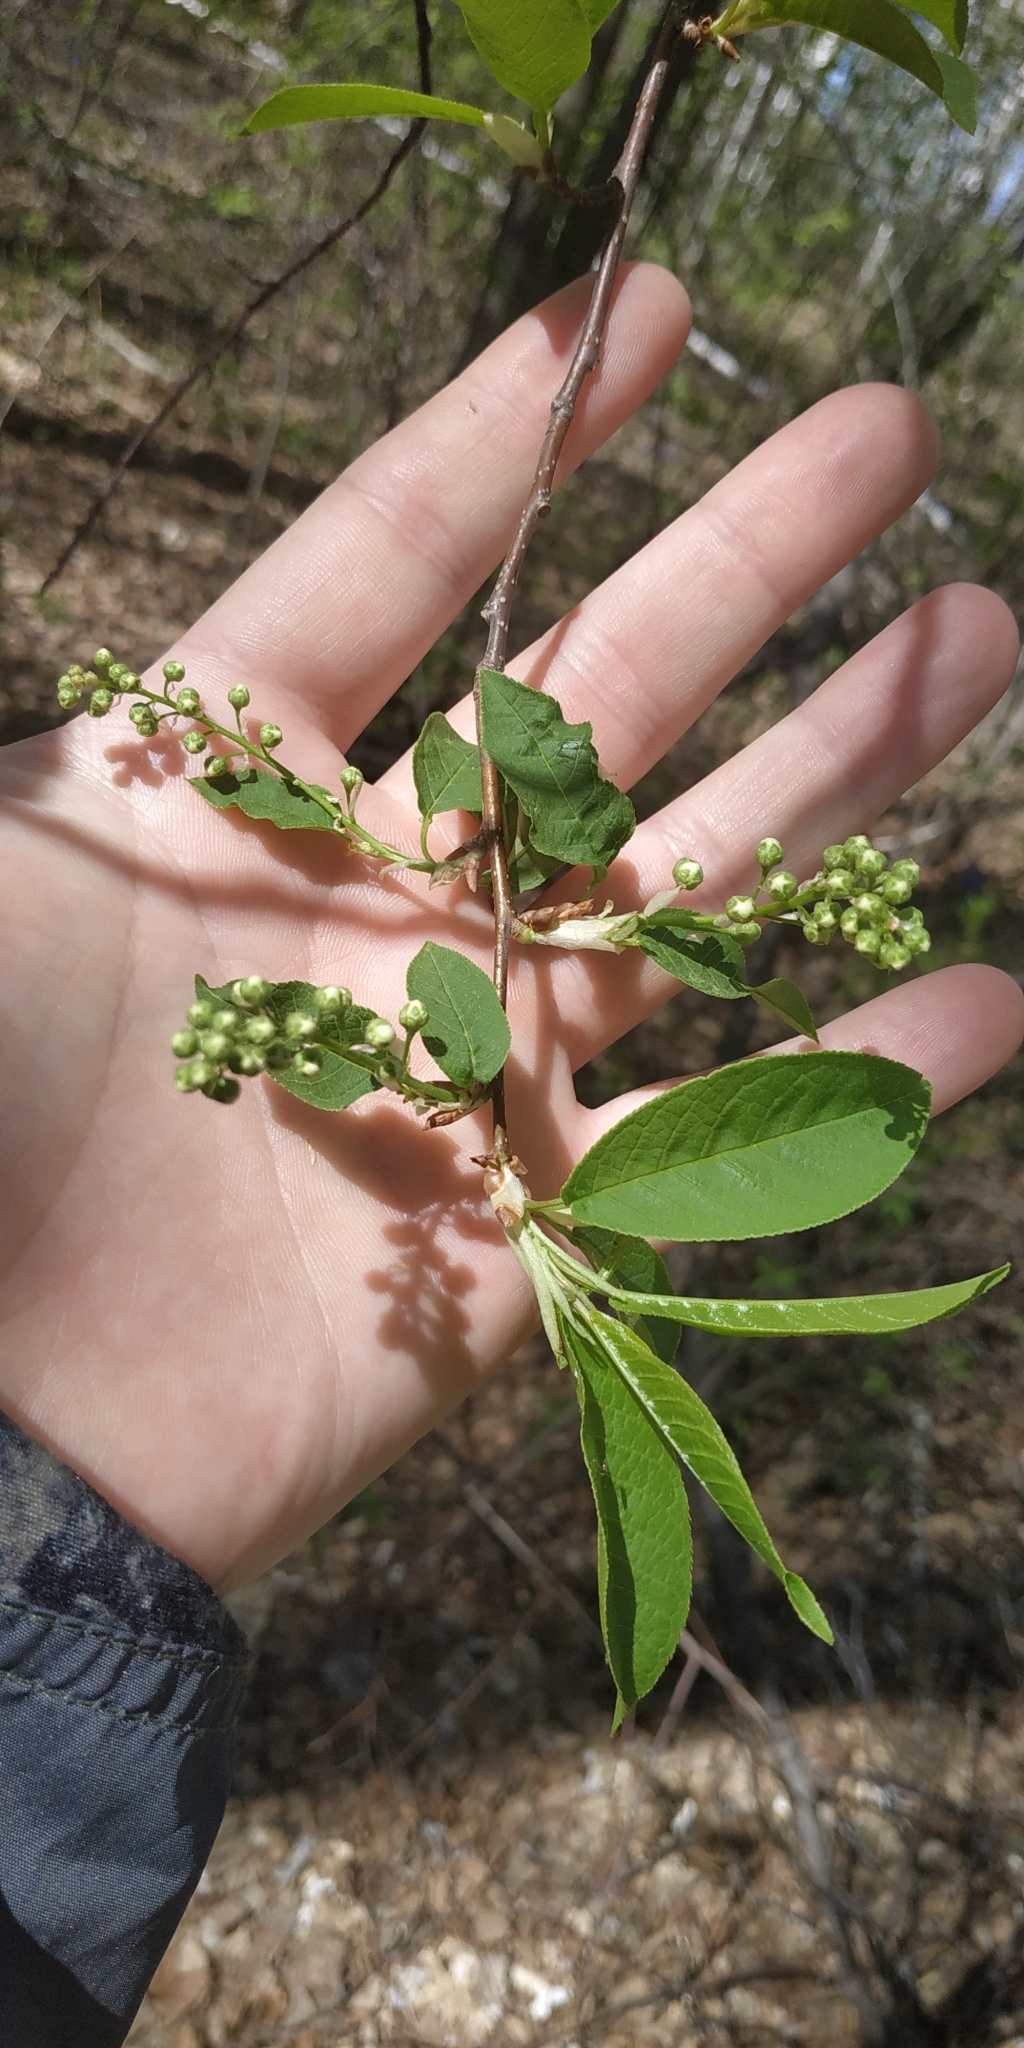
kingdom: Plantae
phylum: Tracheophyta
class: Magnoliopsida
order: Rosales
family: Rosaceae
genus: Prunus
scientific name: Prunus padus
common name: Bird cherry
